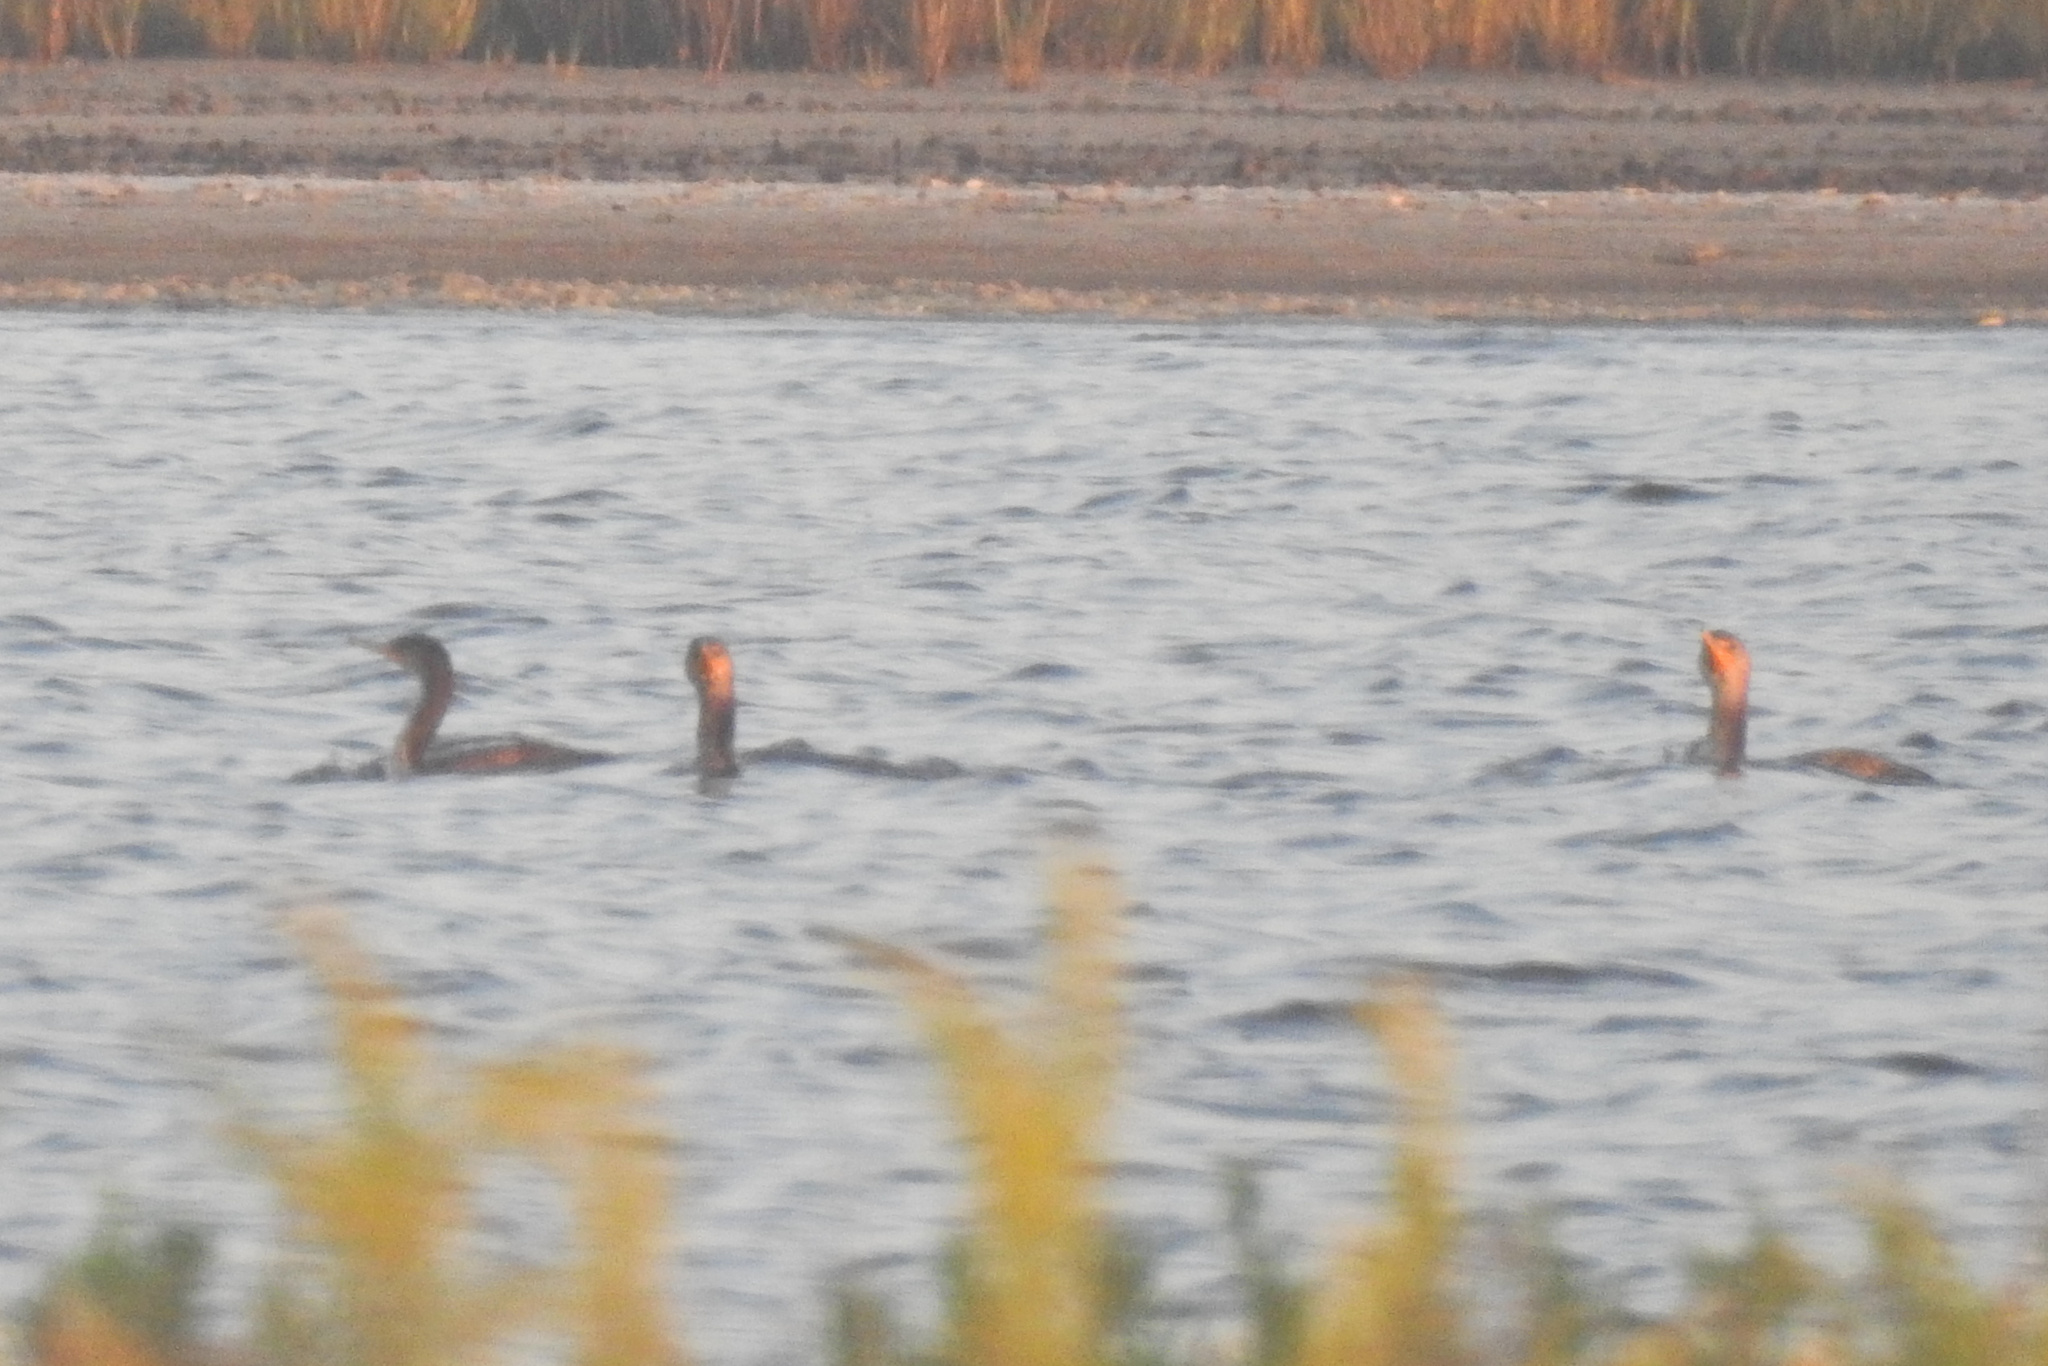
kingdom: Animalia
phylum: Chordata
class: Aves
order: Suliformes
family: Phalacrocoracidae
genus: Phalacrocorax
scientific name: Phalacrocorax auritus
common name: Double-crested cormorant
